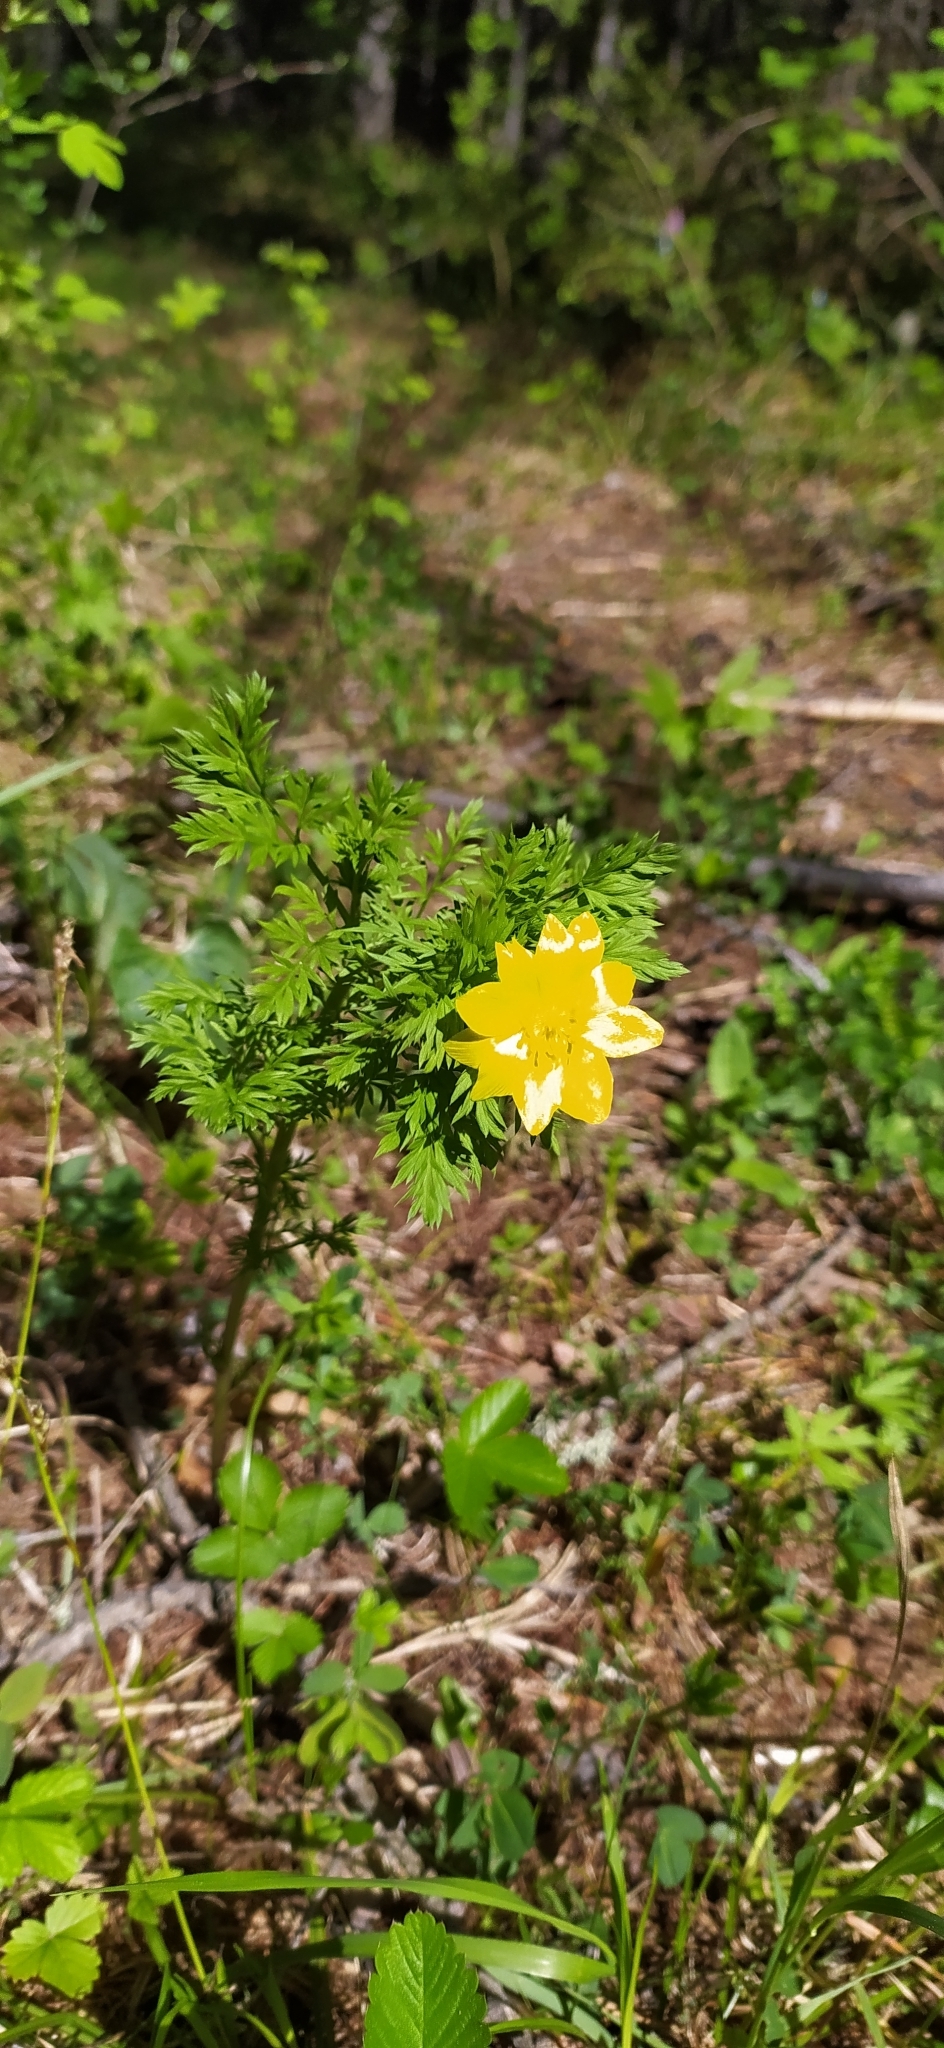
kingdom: Plantae
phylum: Tracheophyta
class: Magnoliopsida
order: Ranunculales
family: Ranunculaceae
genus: Adonis
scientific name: Adonis
